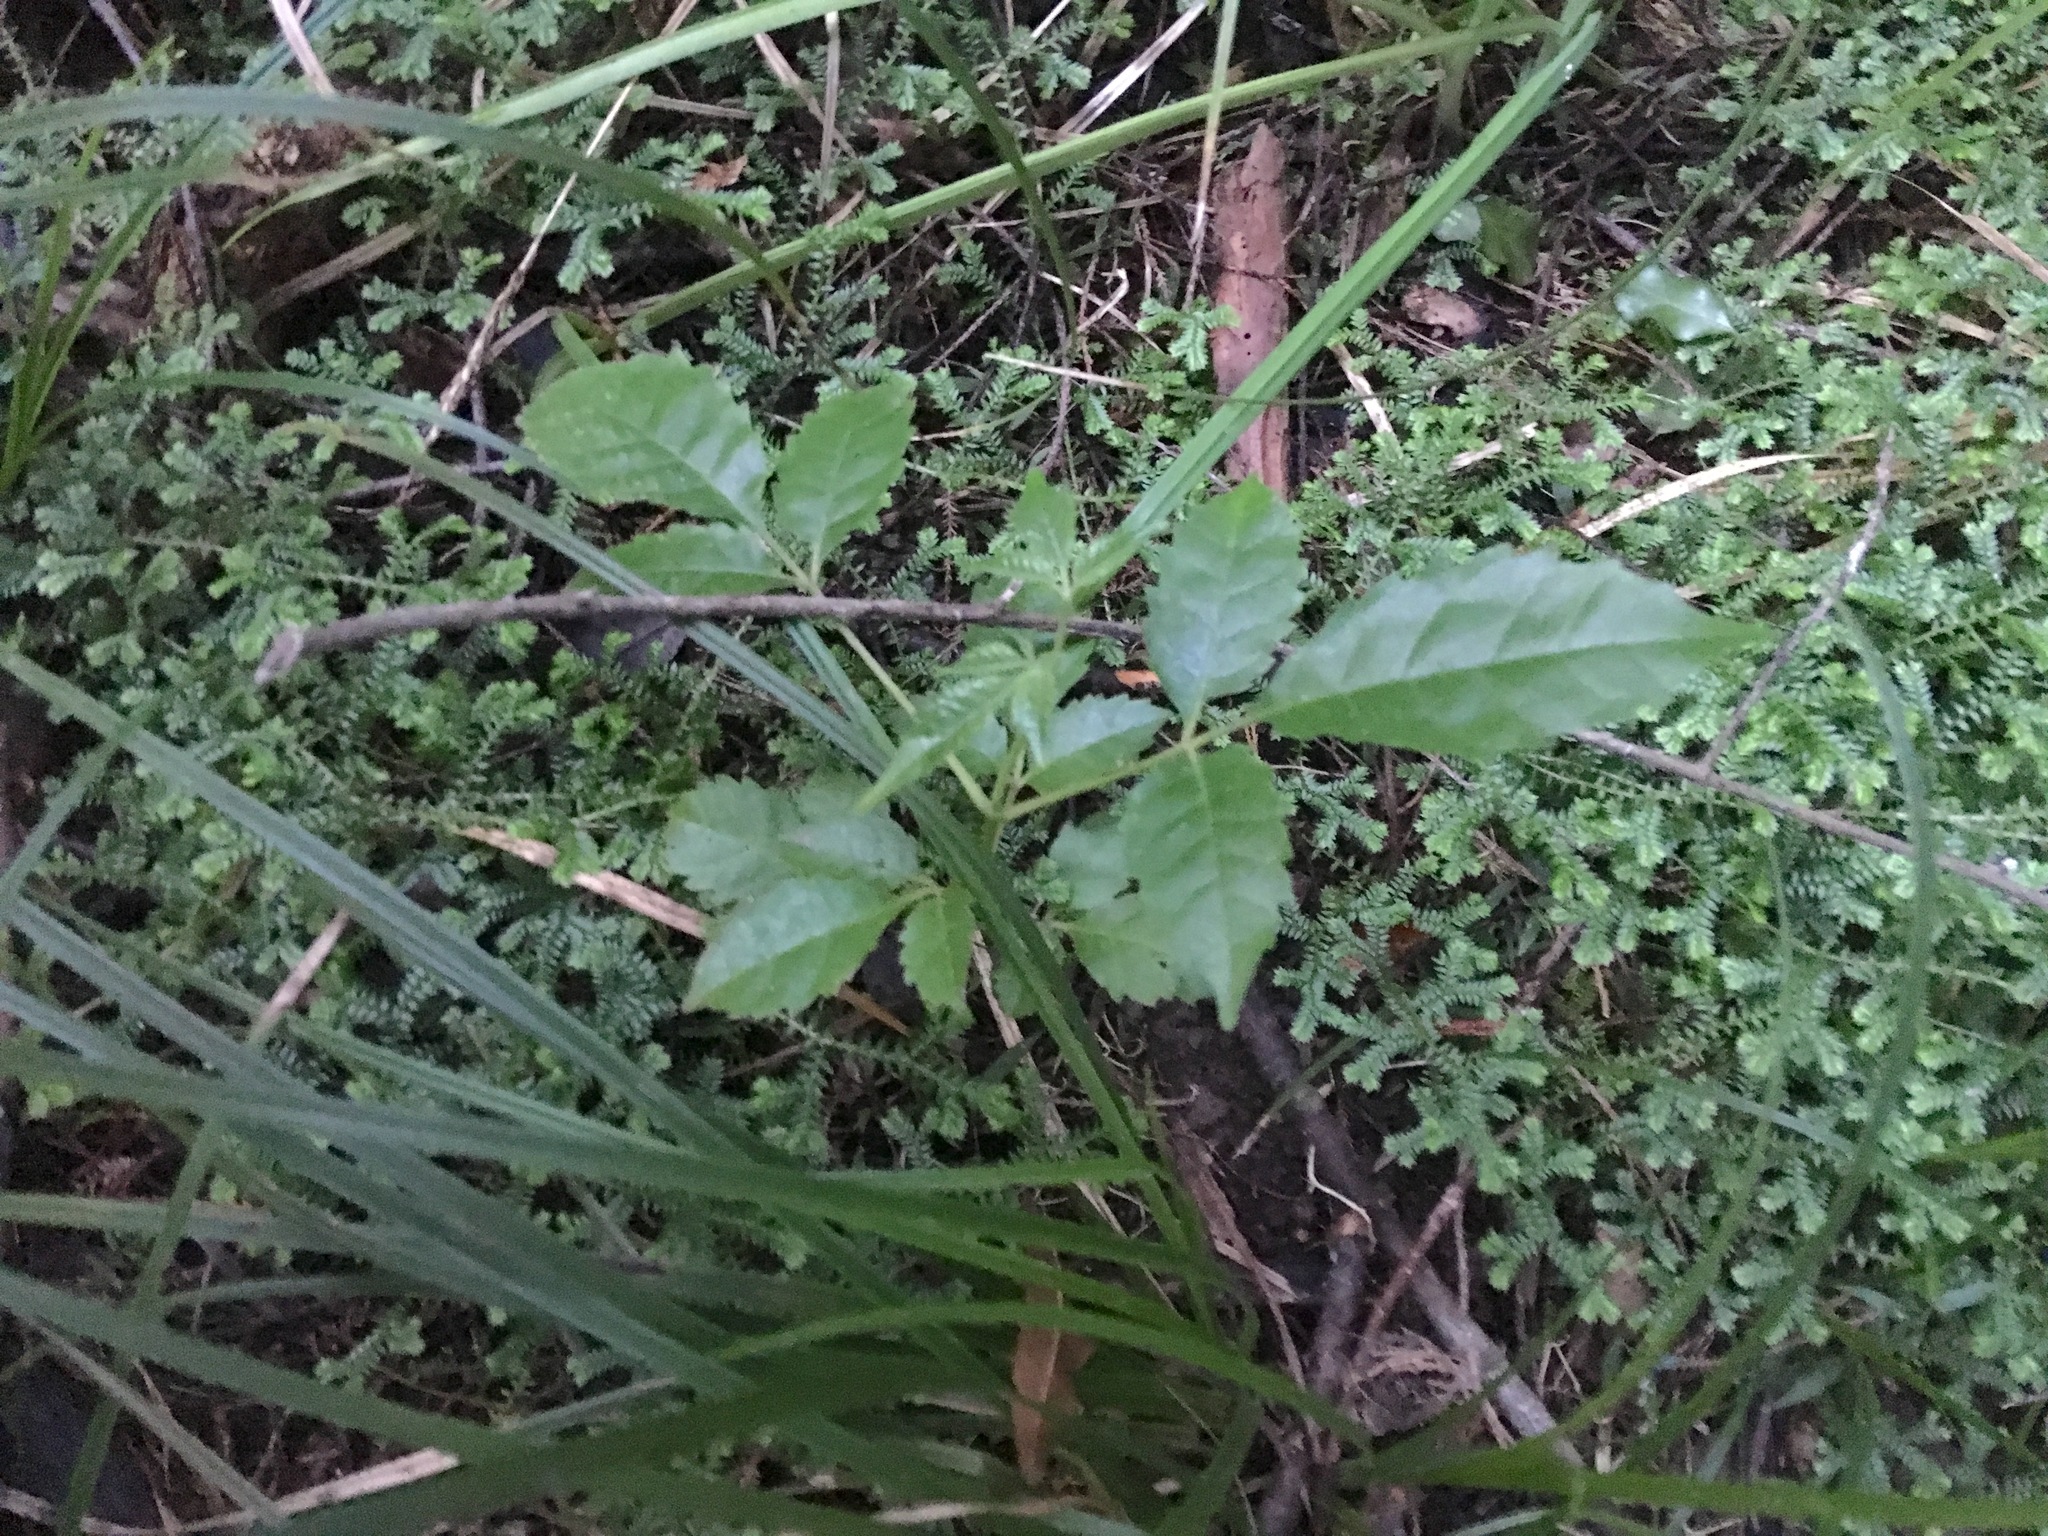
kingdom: Plantae
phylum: Tracheophyta
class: Magnoliopsida
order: Lamiales
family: Lamiaceae
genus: Vitex
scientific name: Vitex lucens
